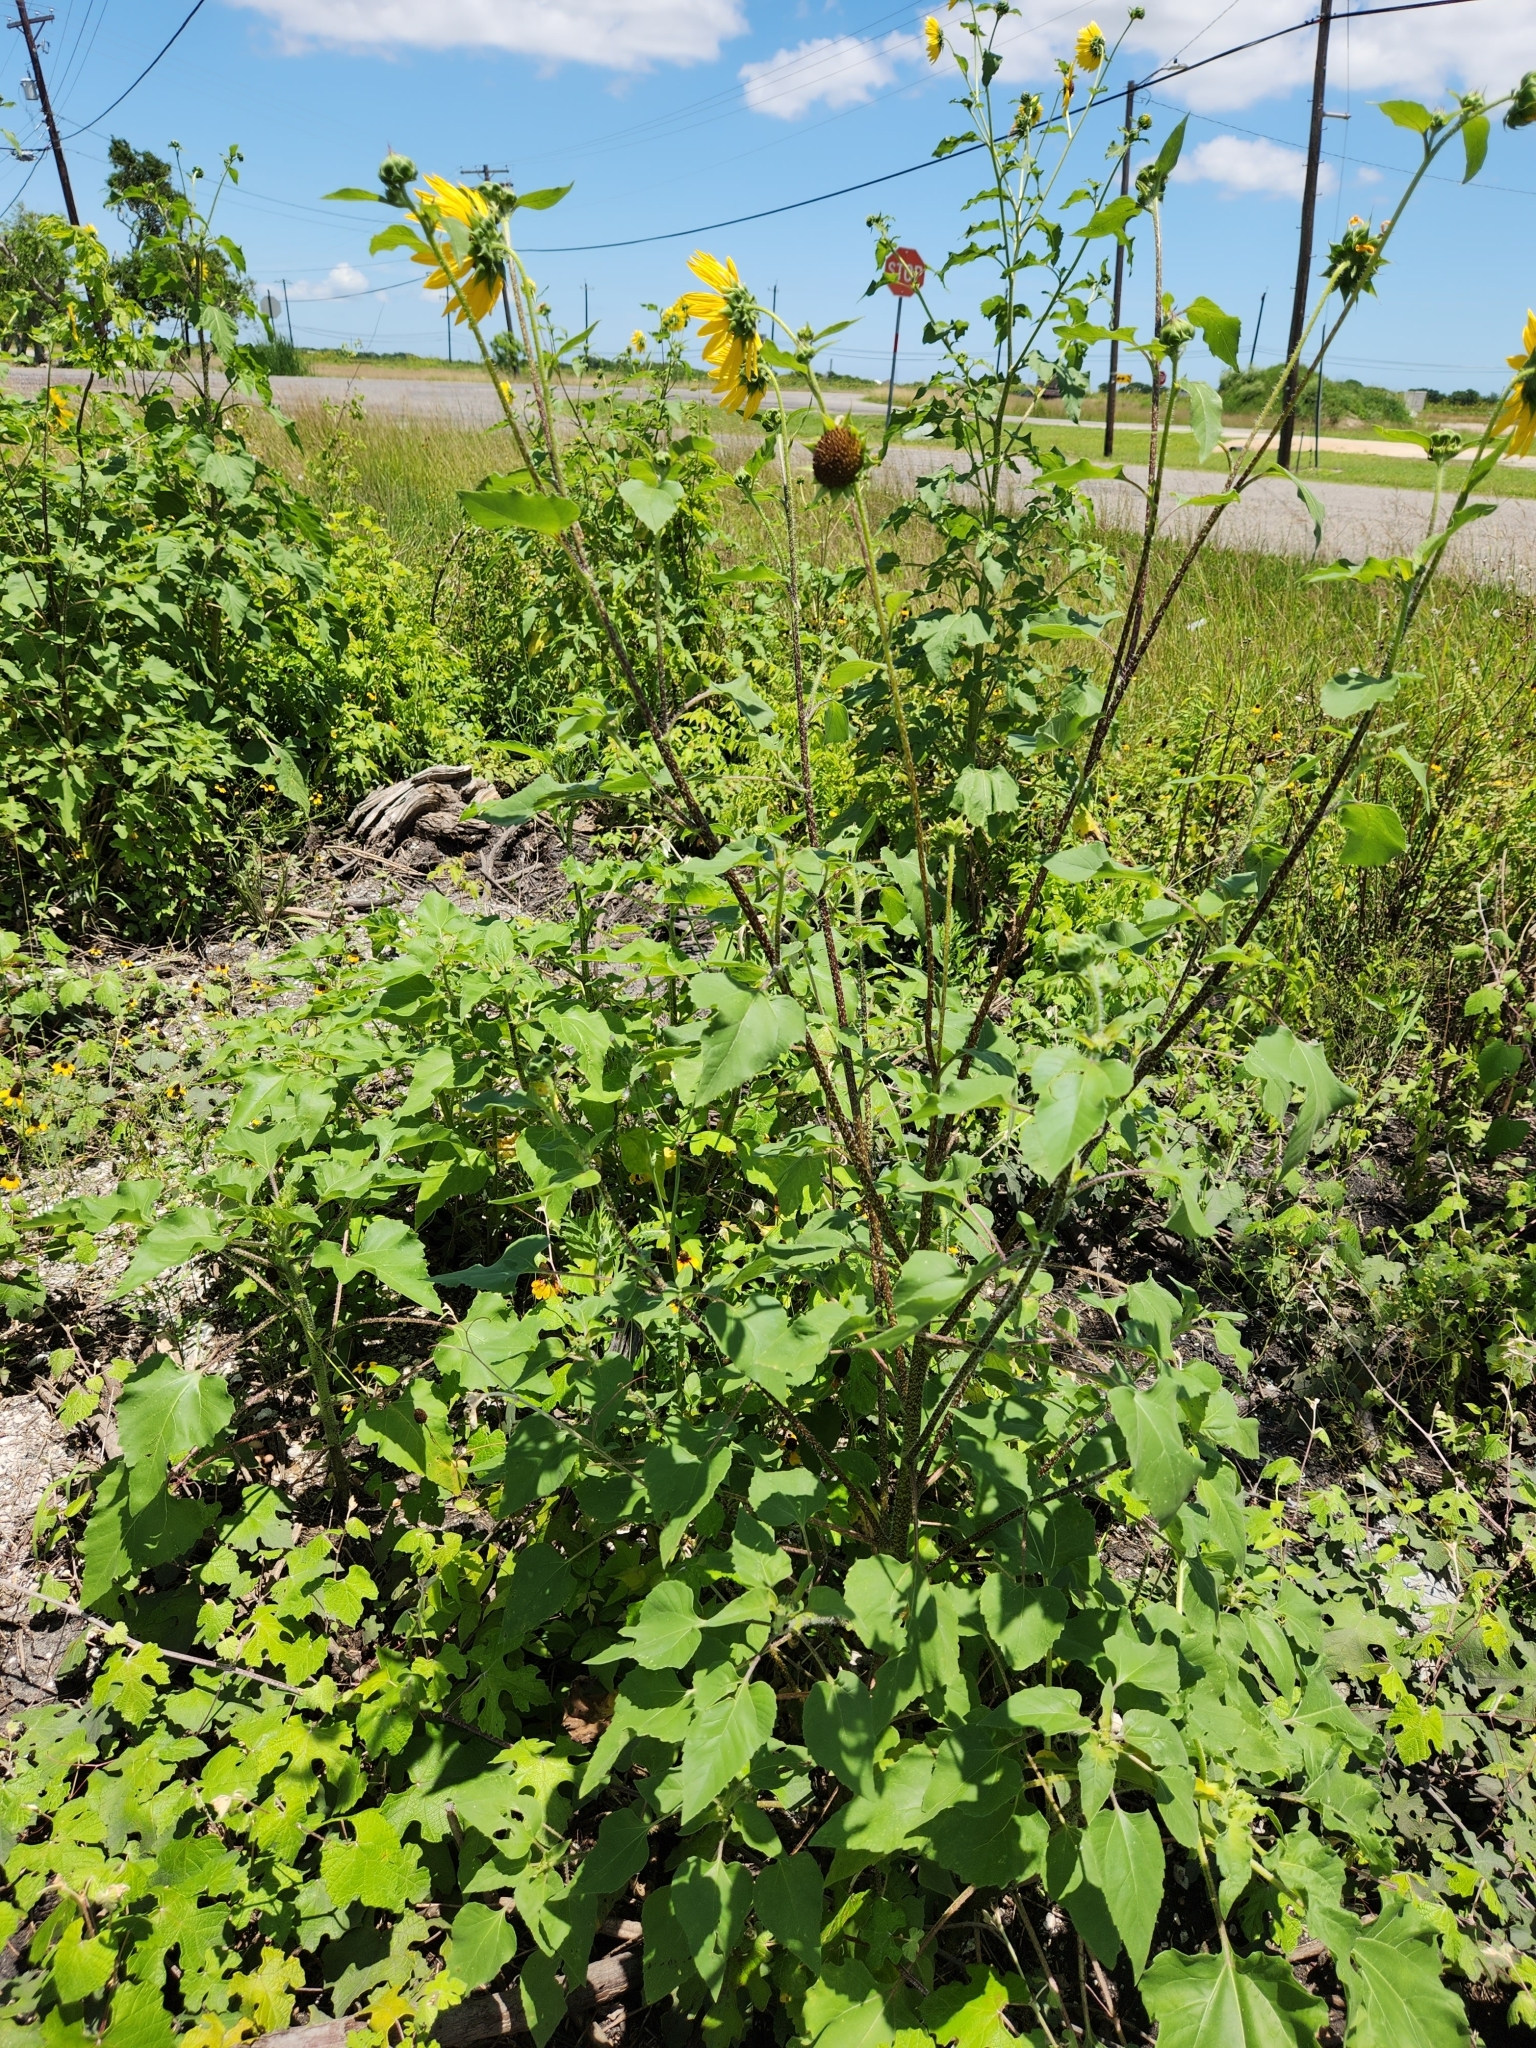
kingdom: Plantae
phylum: Tracheophyta
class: Magnoliopsida
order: Asterales
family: Asteraceae
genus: Helianthus
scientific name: Helianthus annuus
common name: Sunflower
